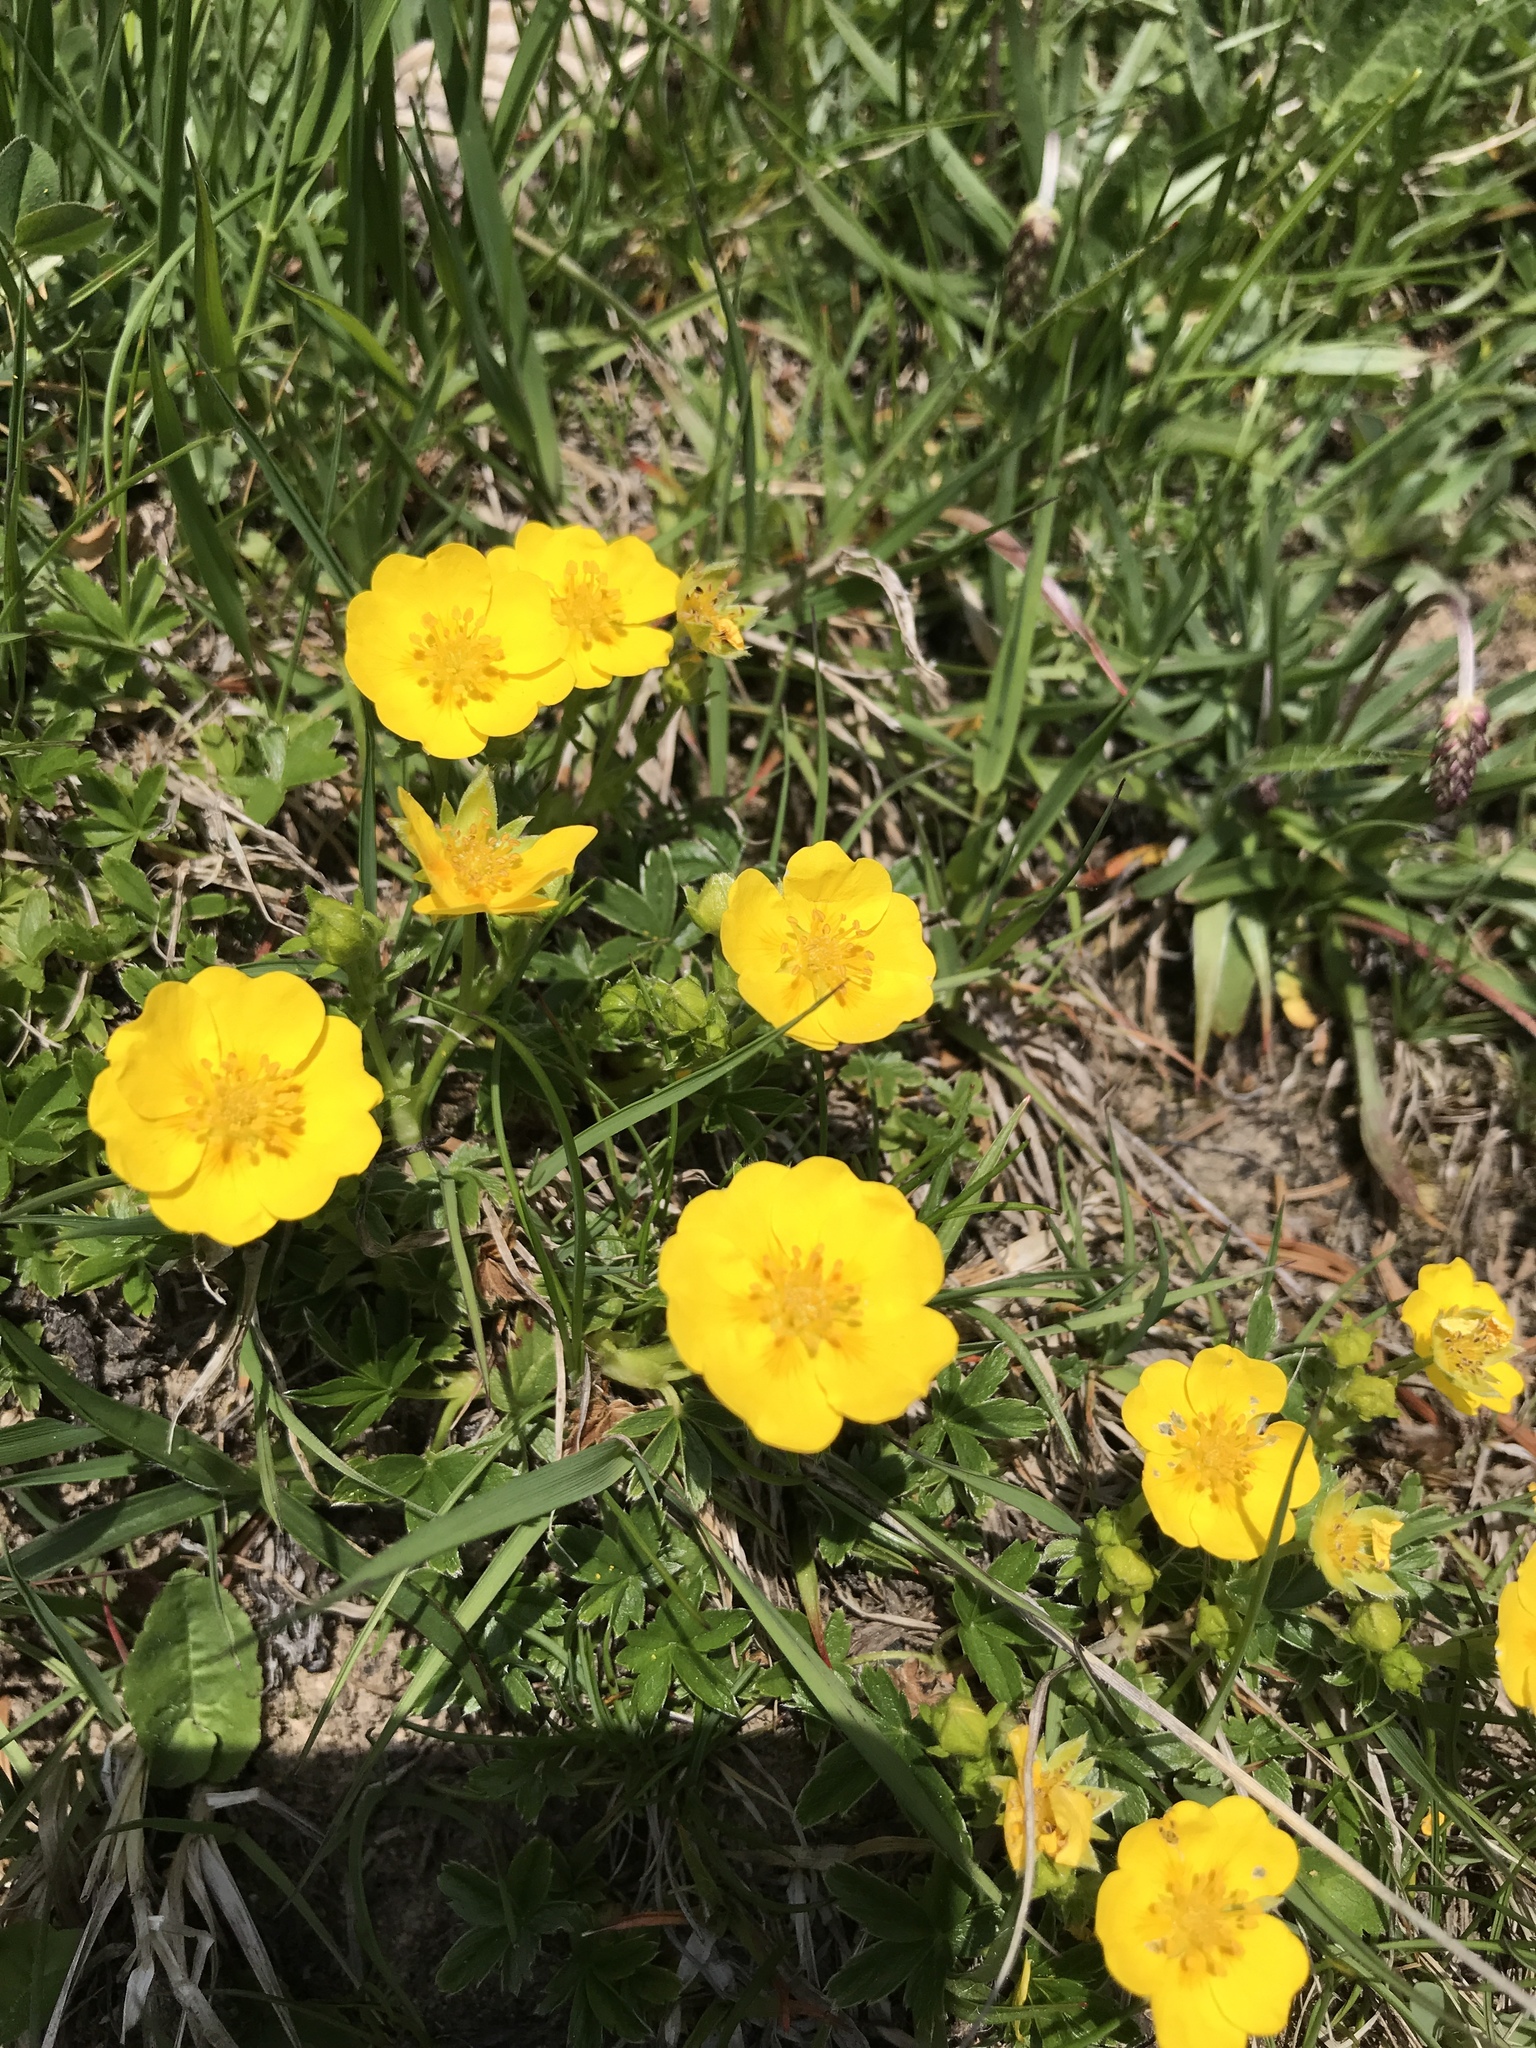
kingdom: Plantae
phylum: Tracheophyta
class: Magnoliopsida
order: Rosales
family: Rosaceae
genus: Potentilla
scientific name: Potentilla aurea
